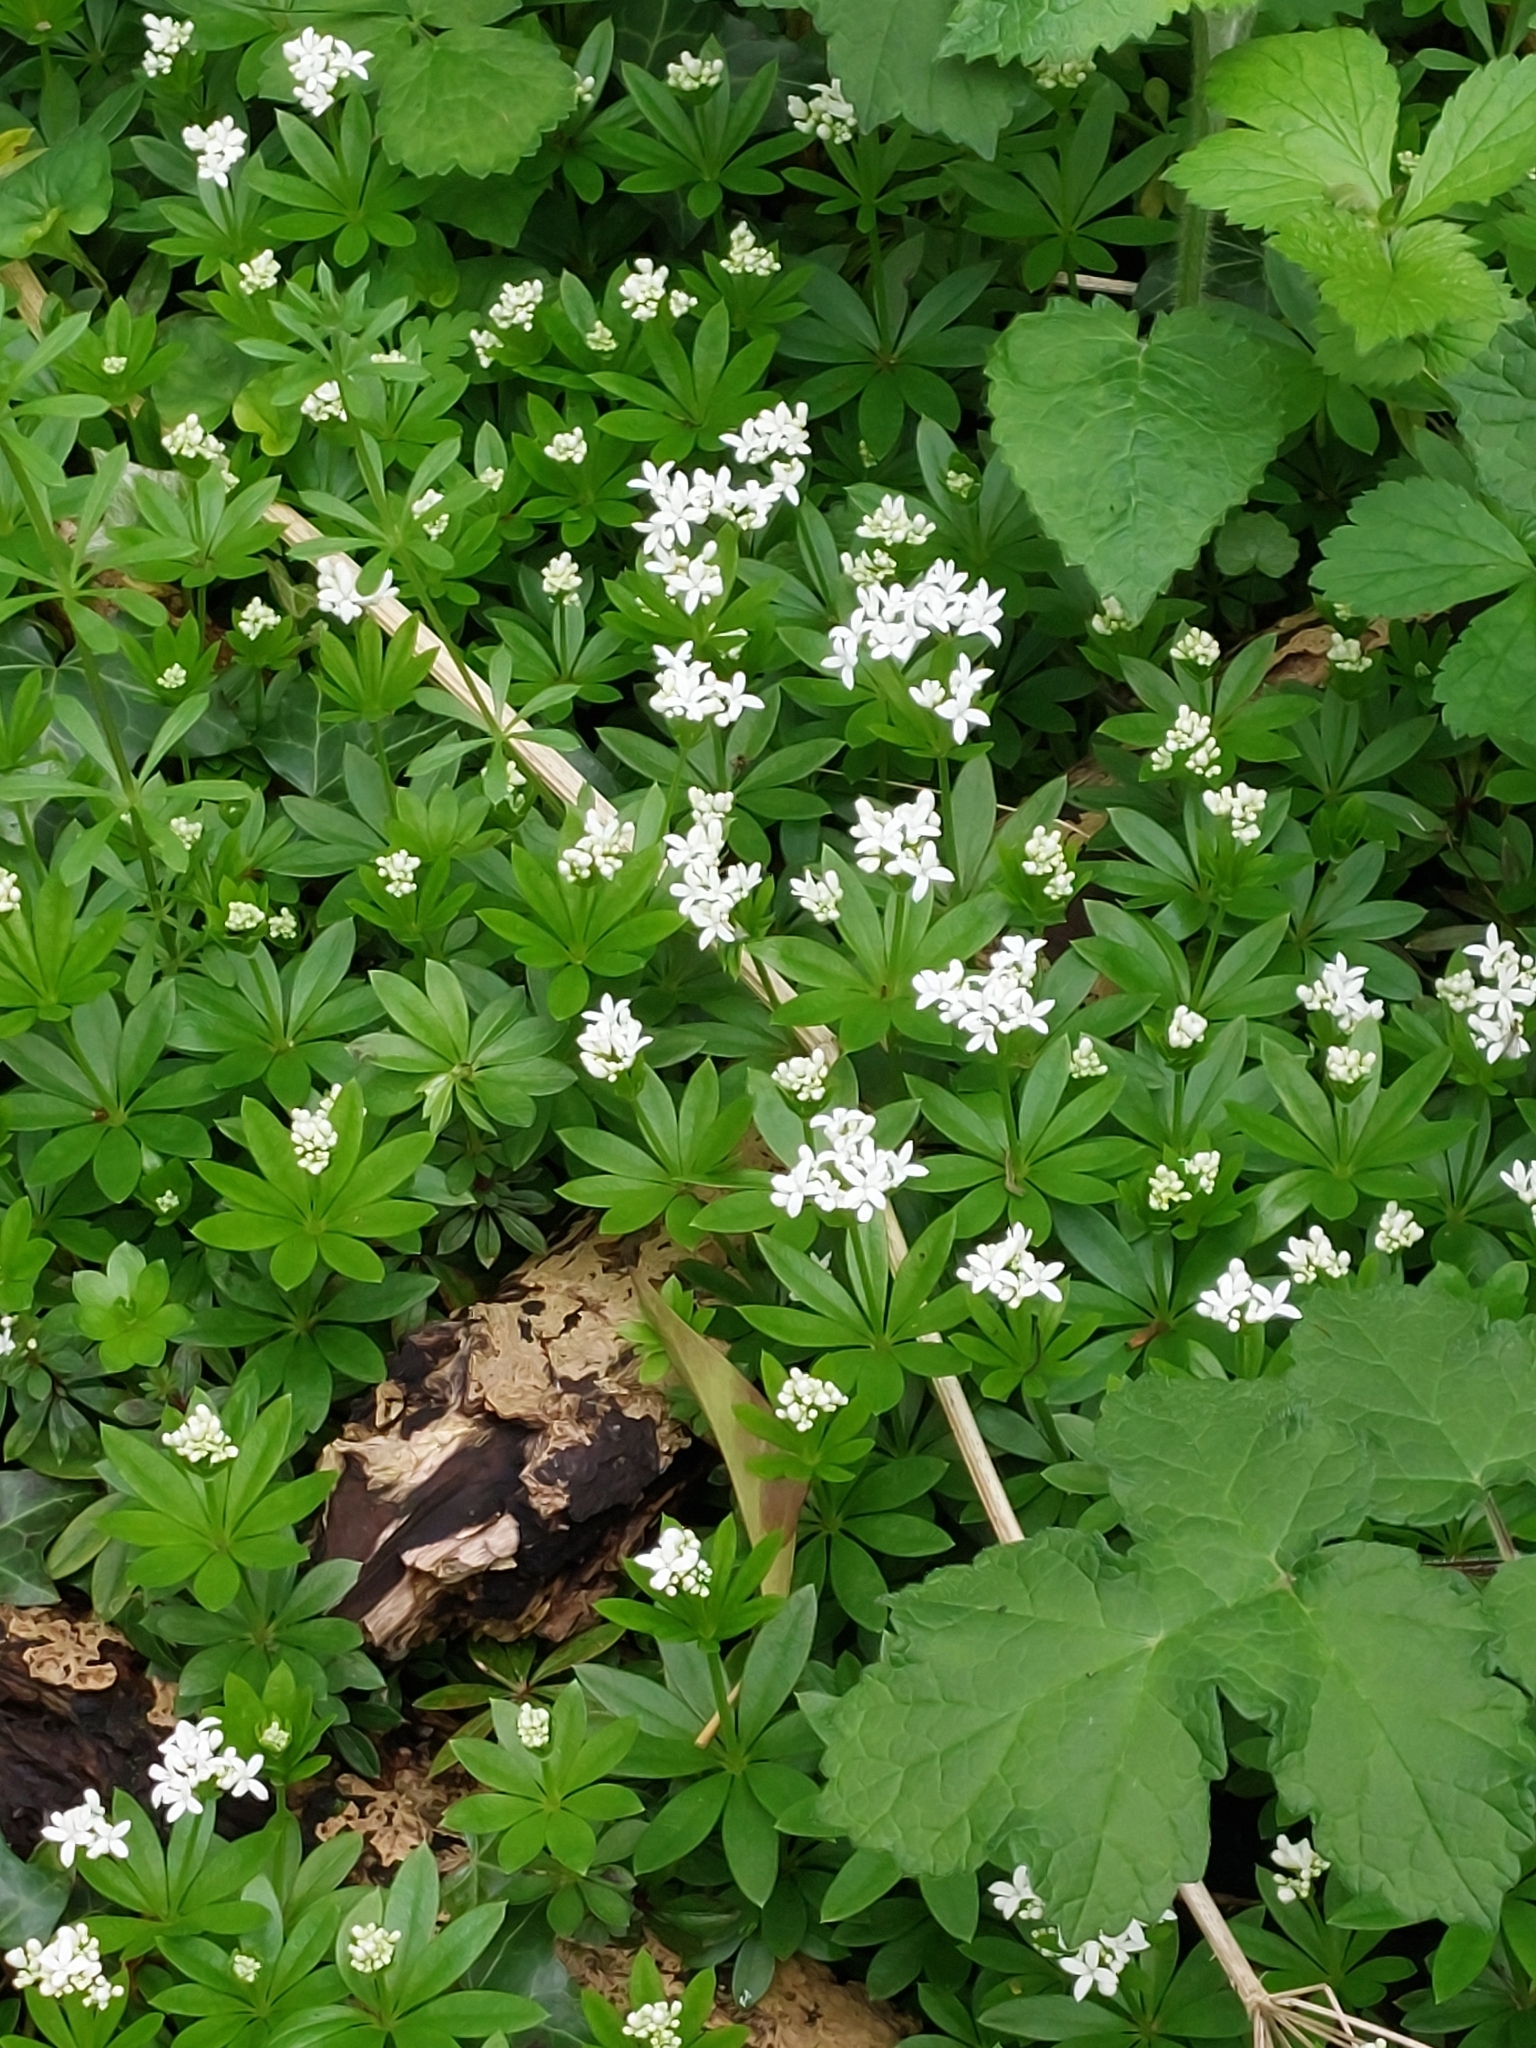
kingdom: Plantae
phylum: Tracheophyta
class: Magnoliopsida
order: Gentianales
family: Rubiaceae
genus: Galium
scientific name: Galium odoratum
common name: Sweet woodruff
